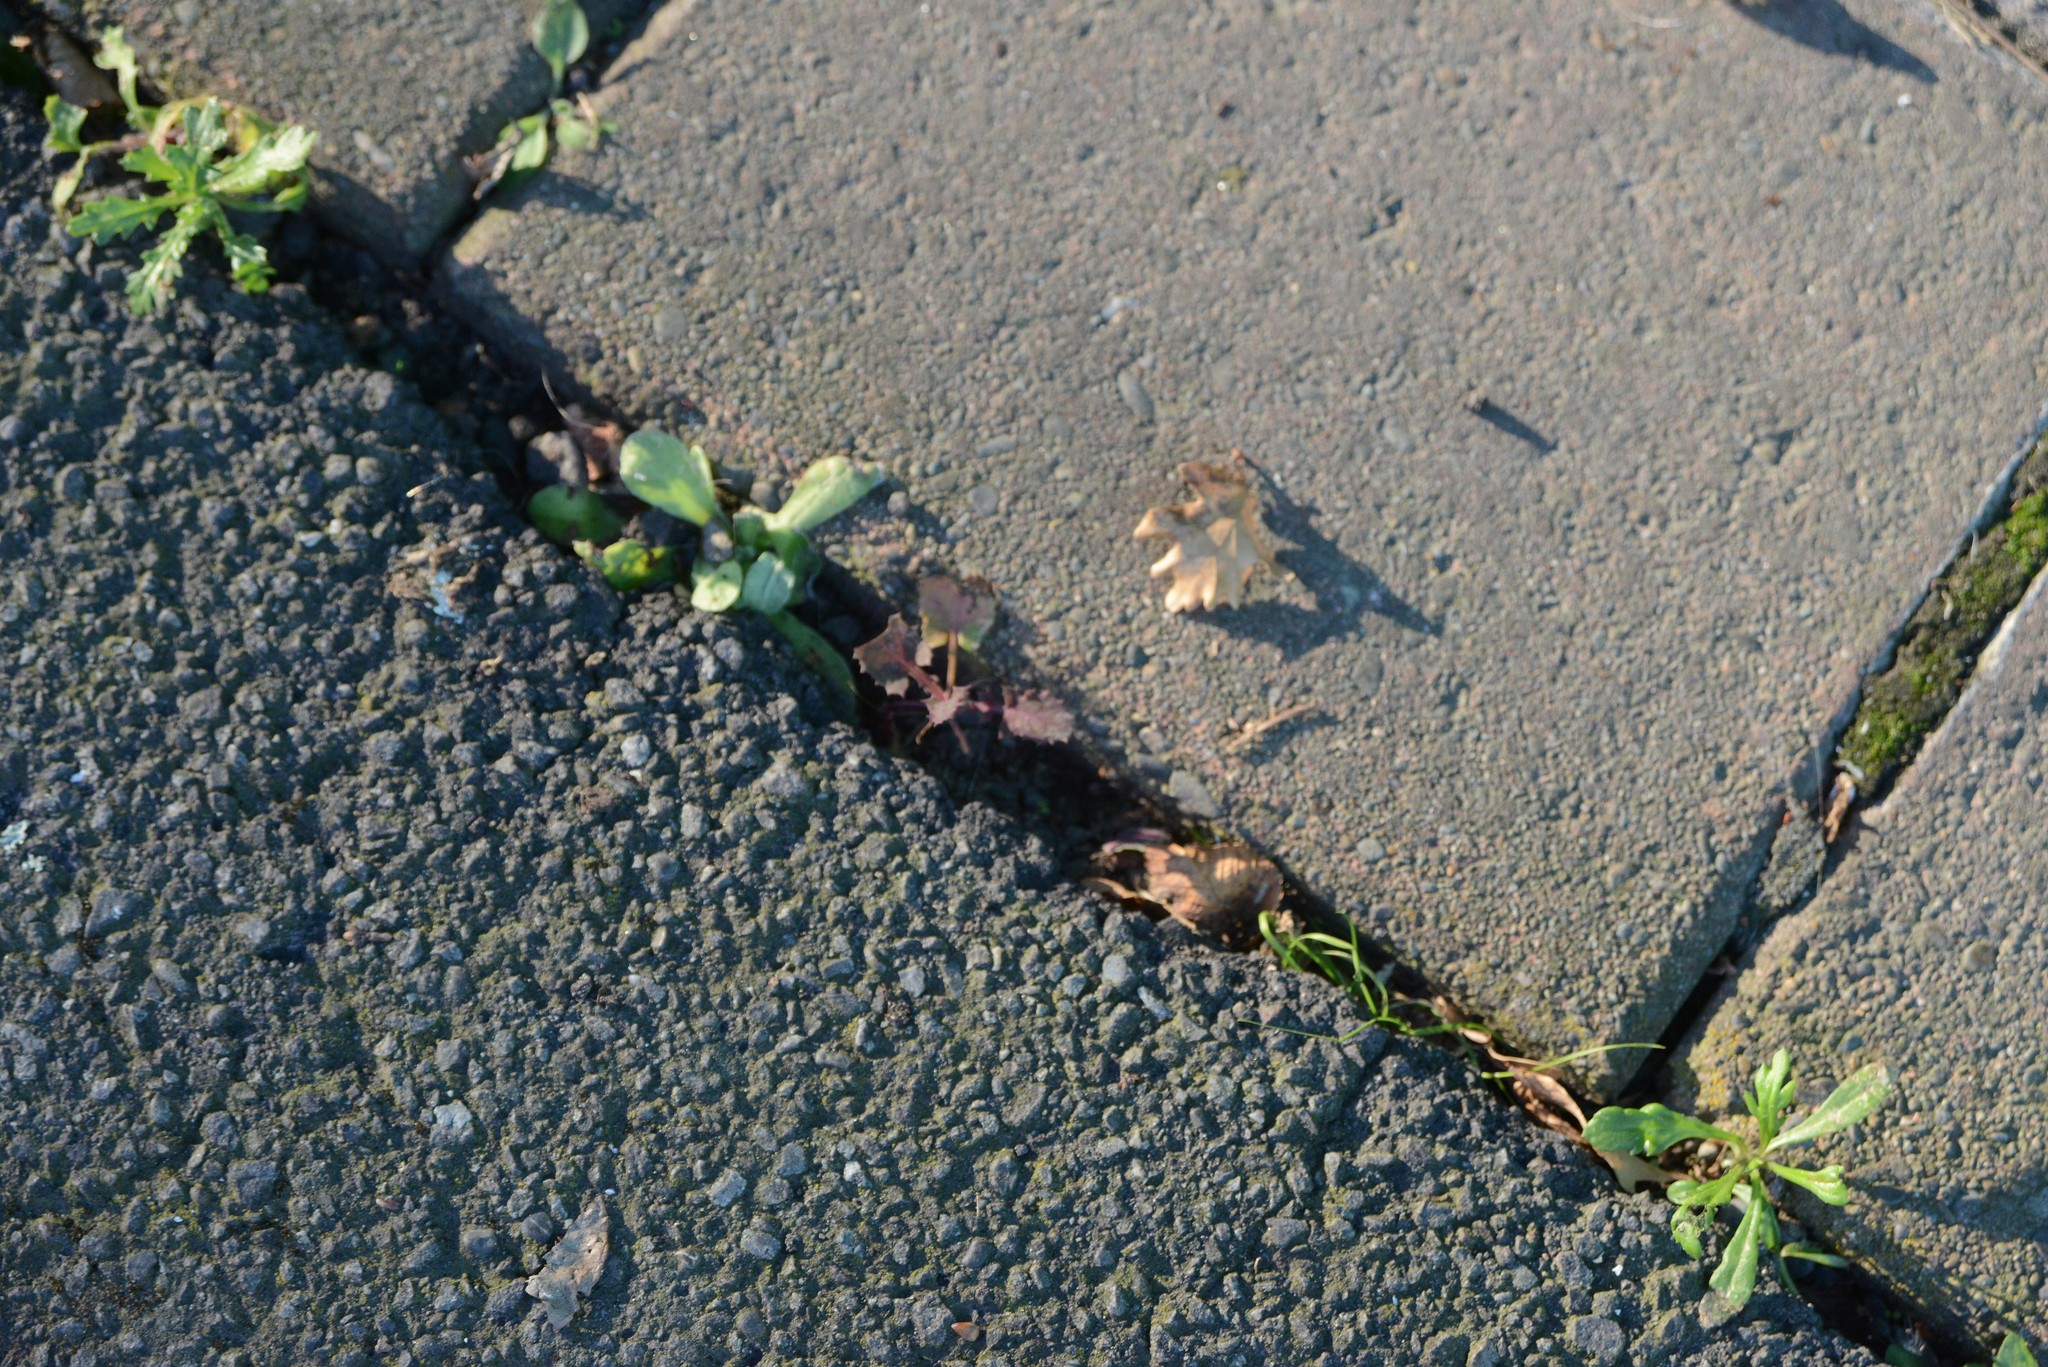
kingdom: Plantae
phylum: Tracheophyta
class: Magnoliopsida
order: Asterales
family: Asteraceae
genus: Senecio
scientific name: Senecio skirrhodon
